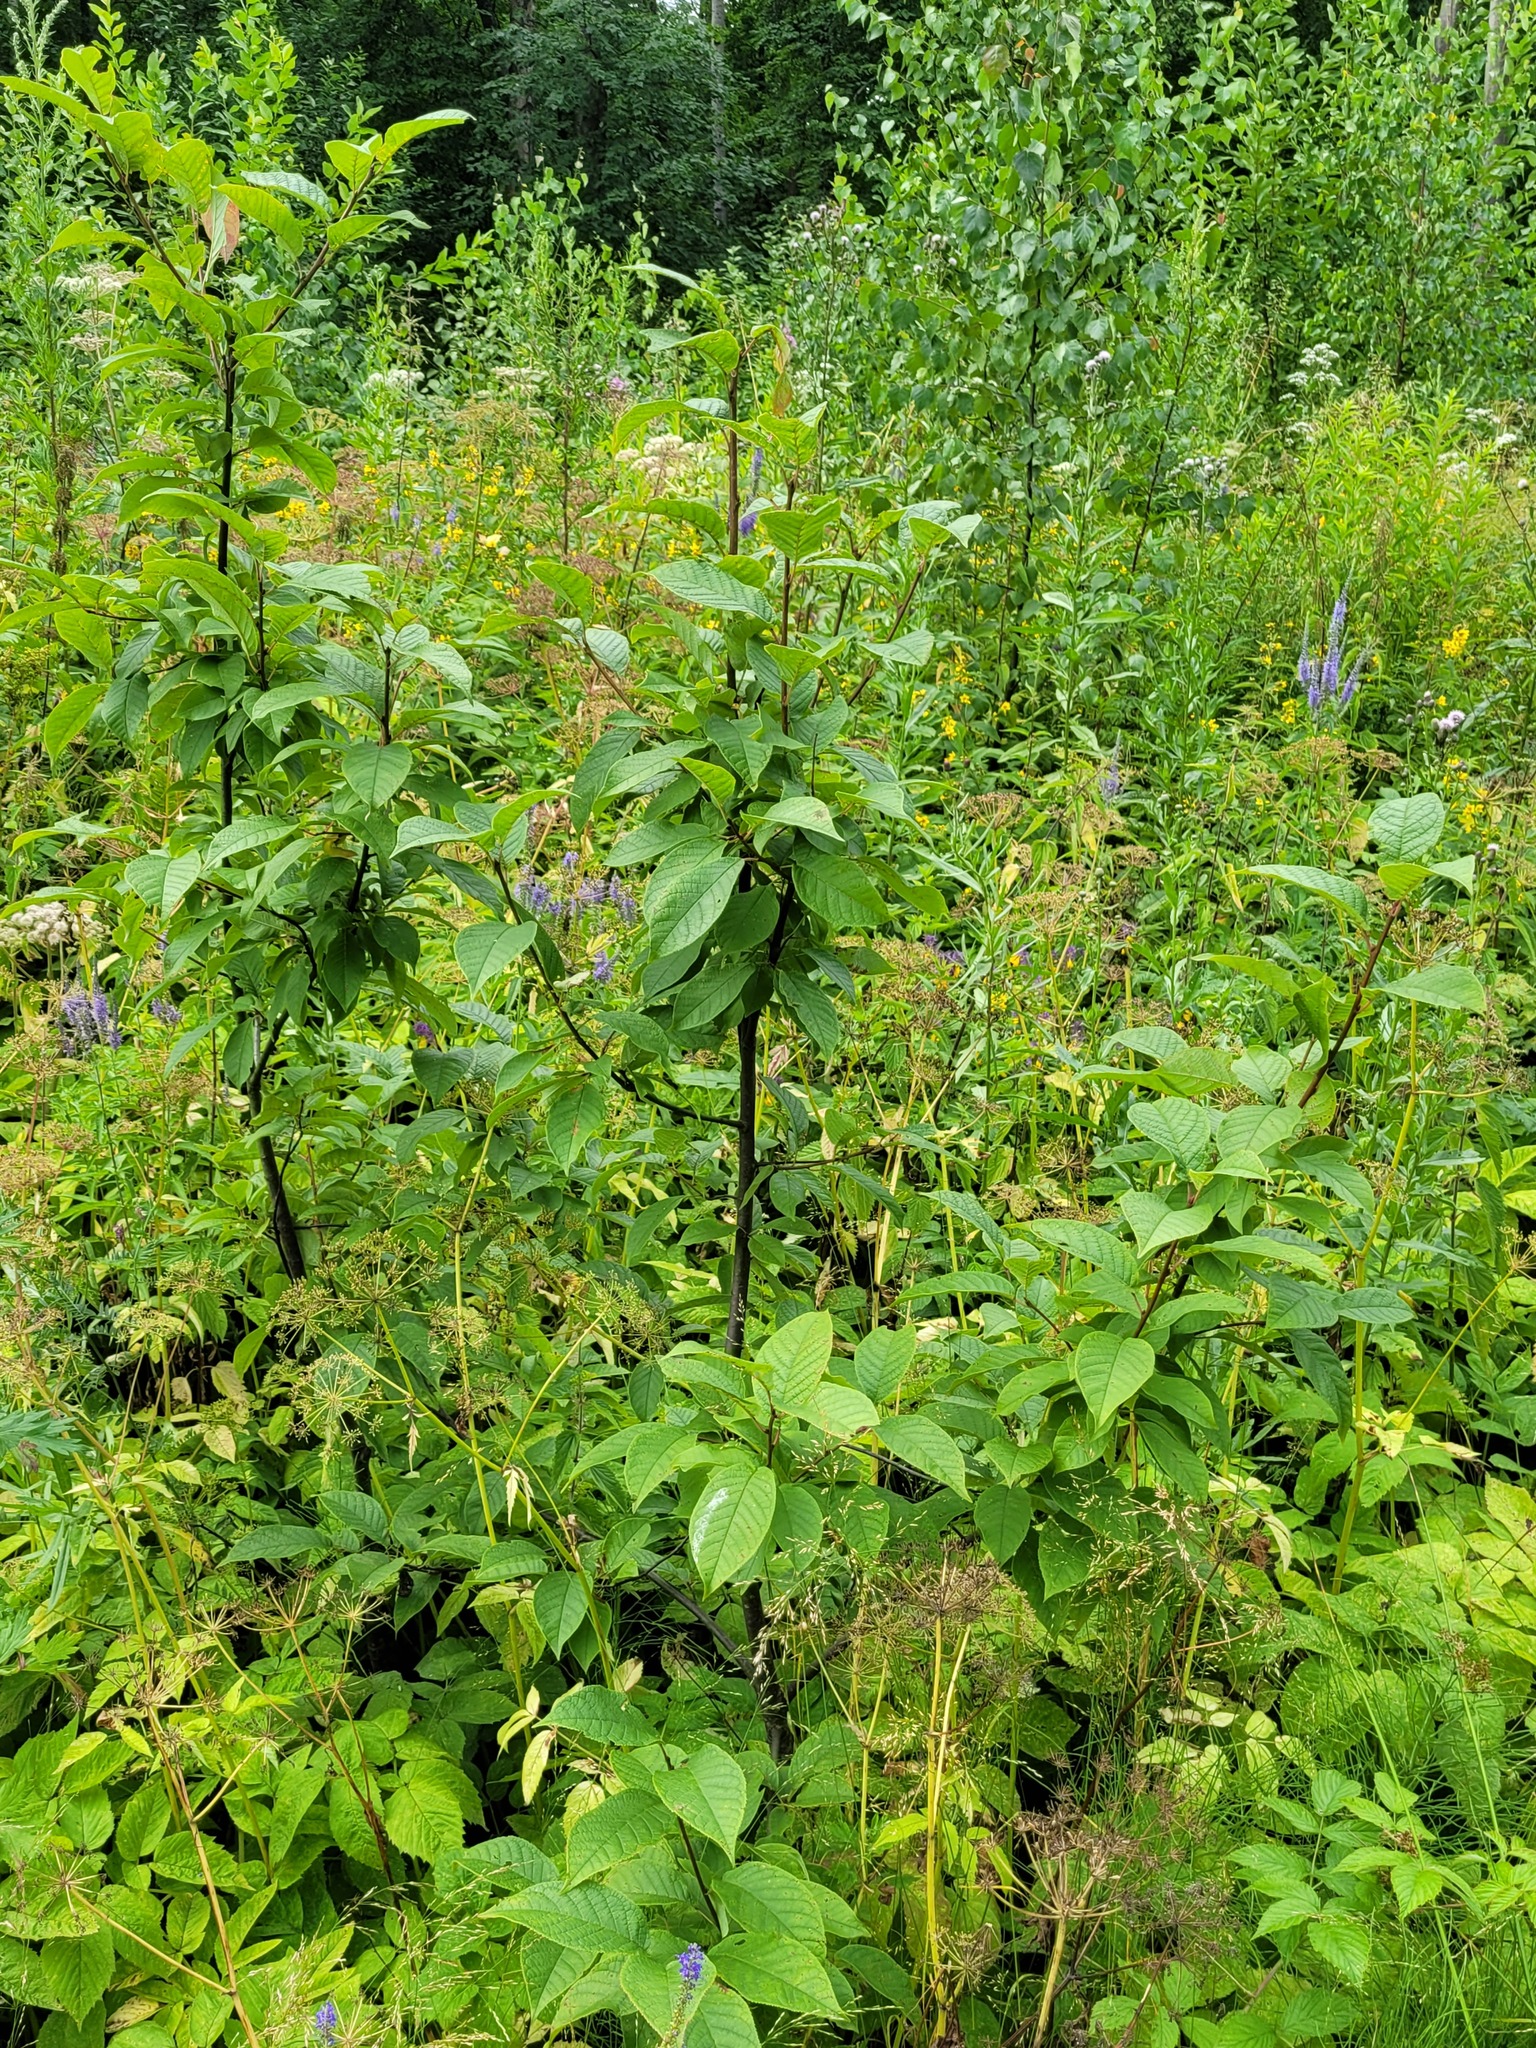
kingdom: Plantae
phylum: Tracheophyta
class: Magnoliopsida
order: Rosales
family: Rosaceae
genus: Prunus
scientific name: Prunus padus
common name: Bird cherry
